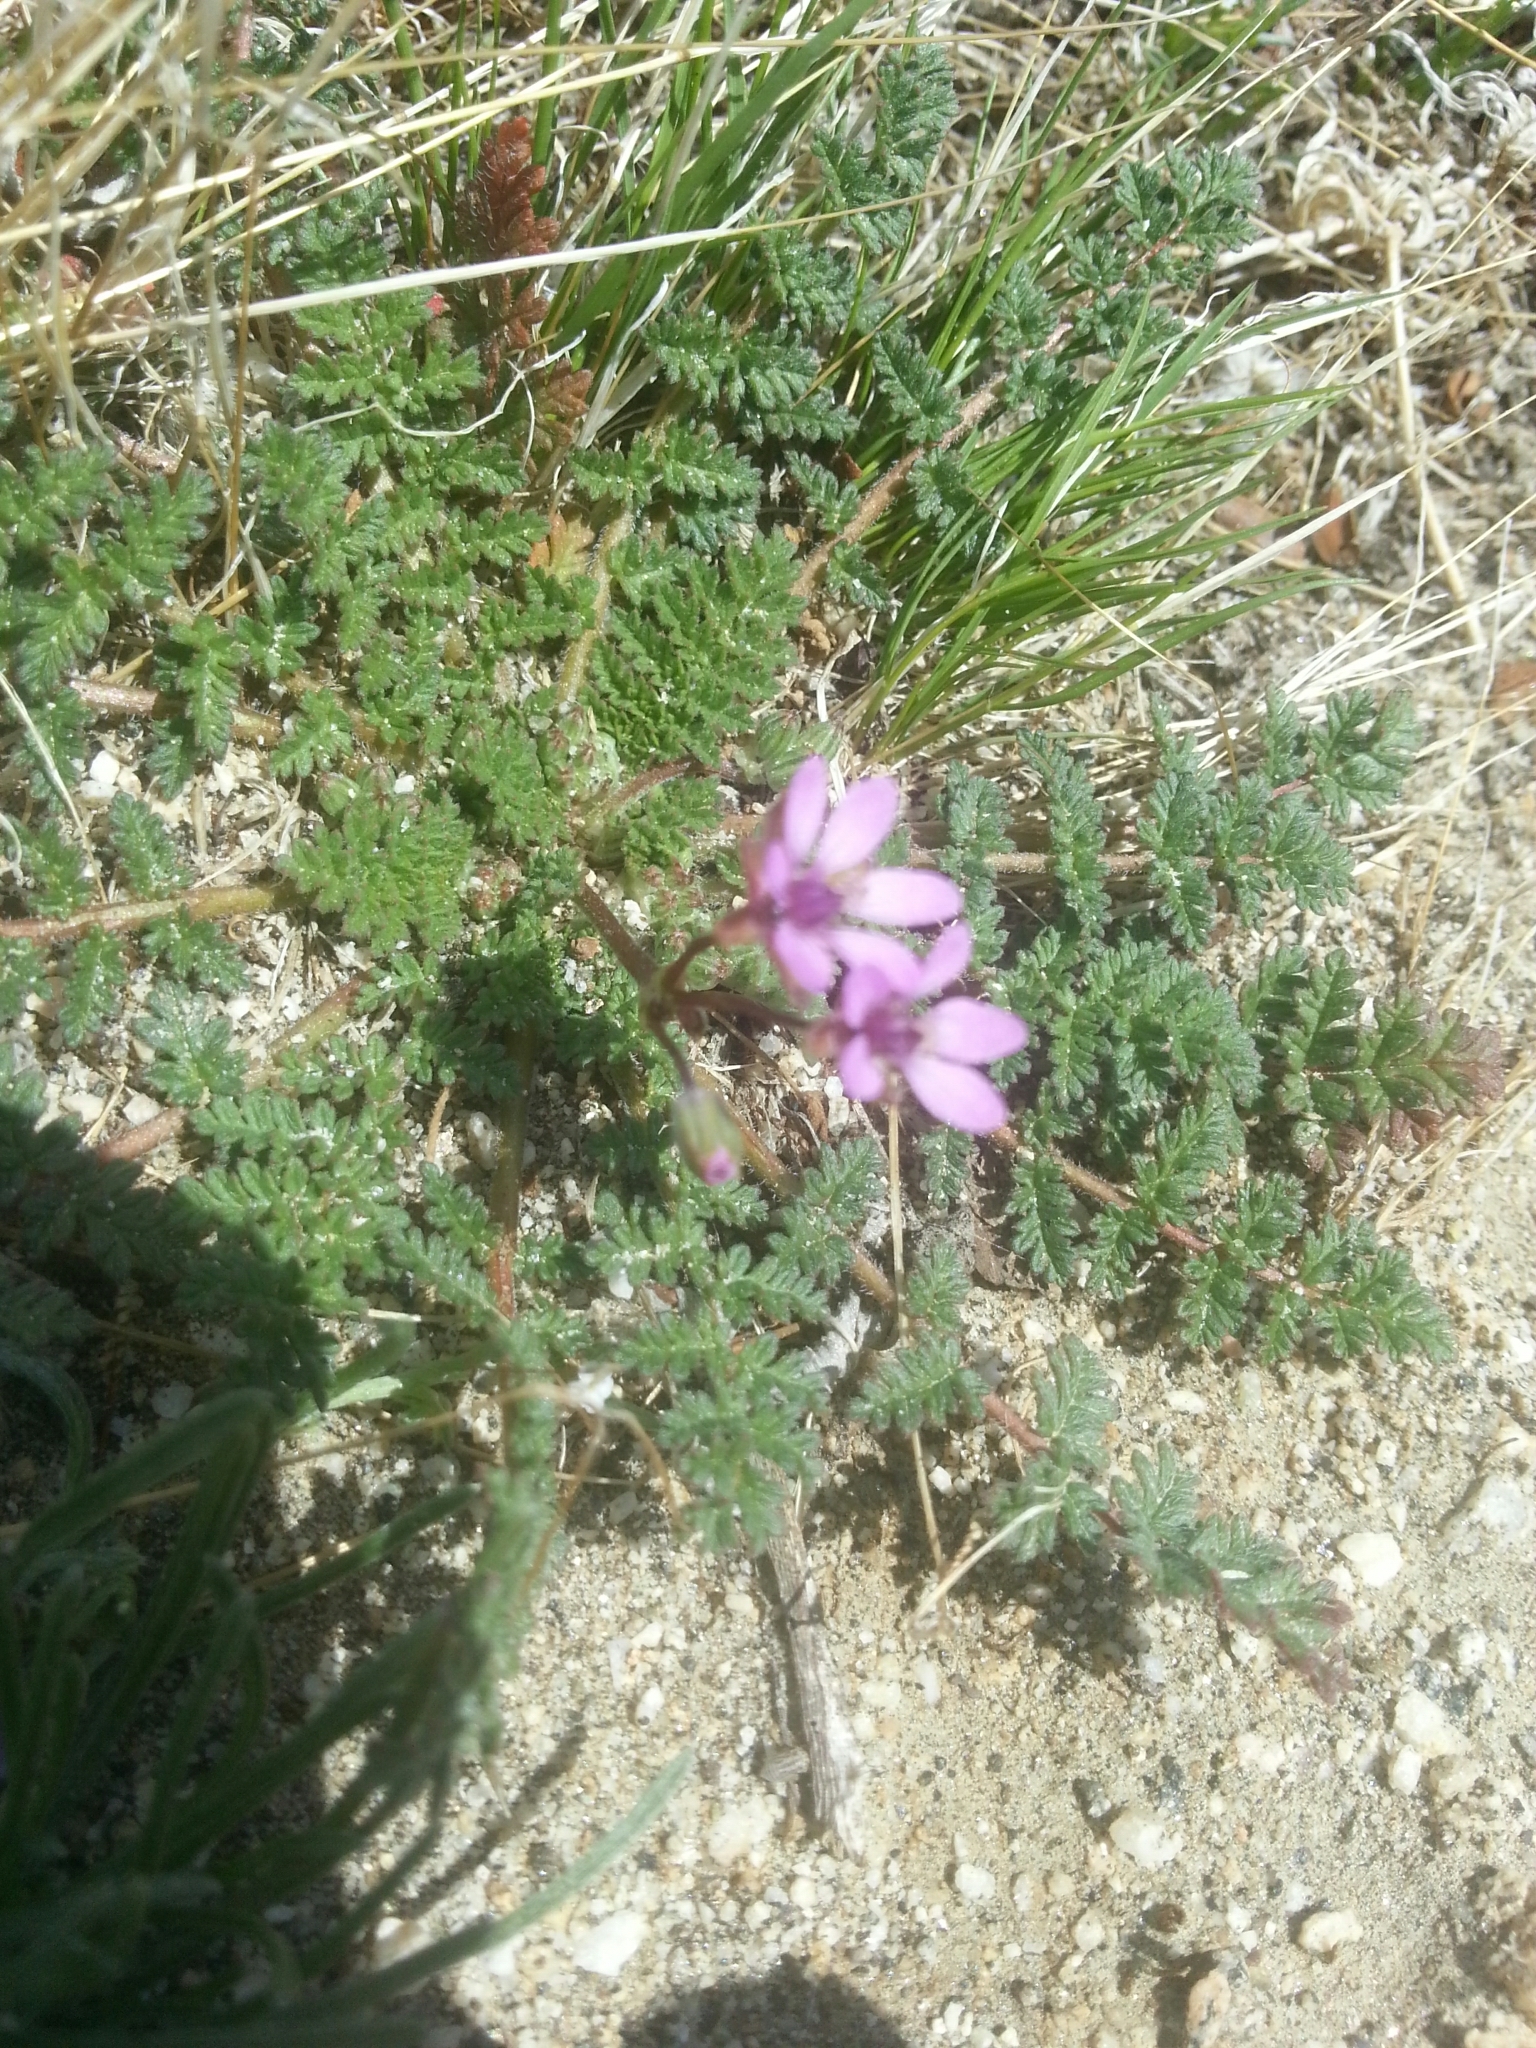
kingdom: Plantae
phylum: Tracheophyta
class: Magnoliopsida
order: Geraniales
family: Geraniaceae
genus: Erodium
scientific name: Erodium cicutarium
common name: Common stork's-bill
